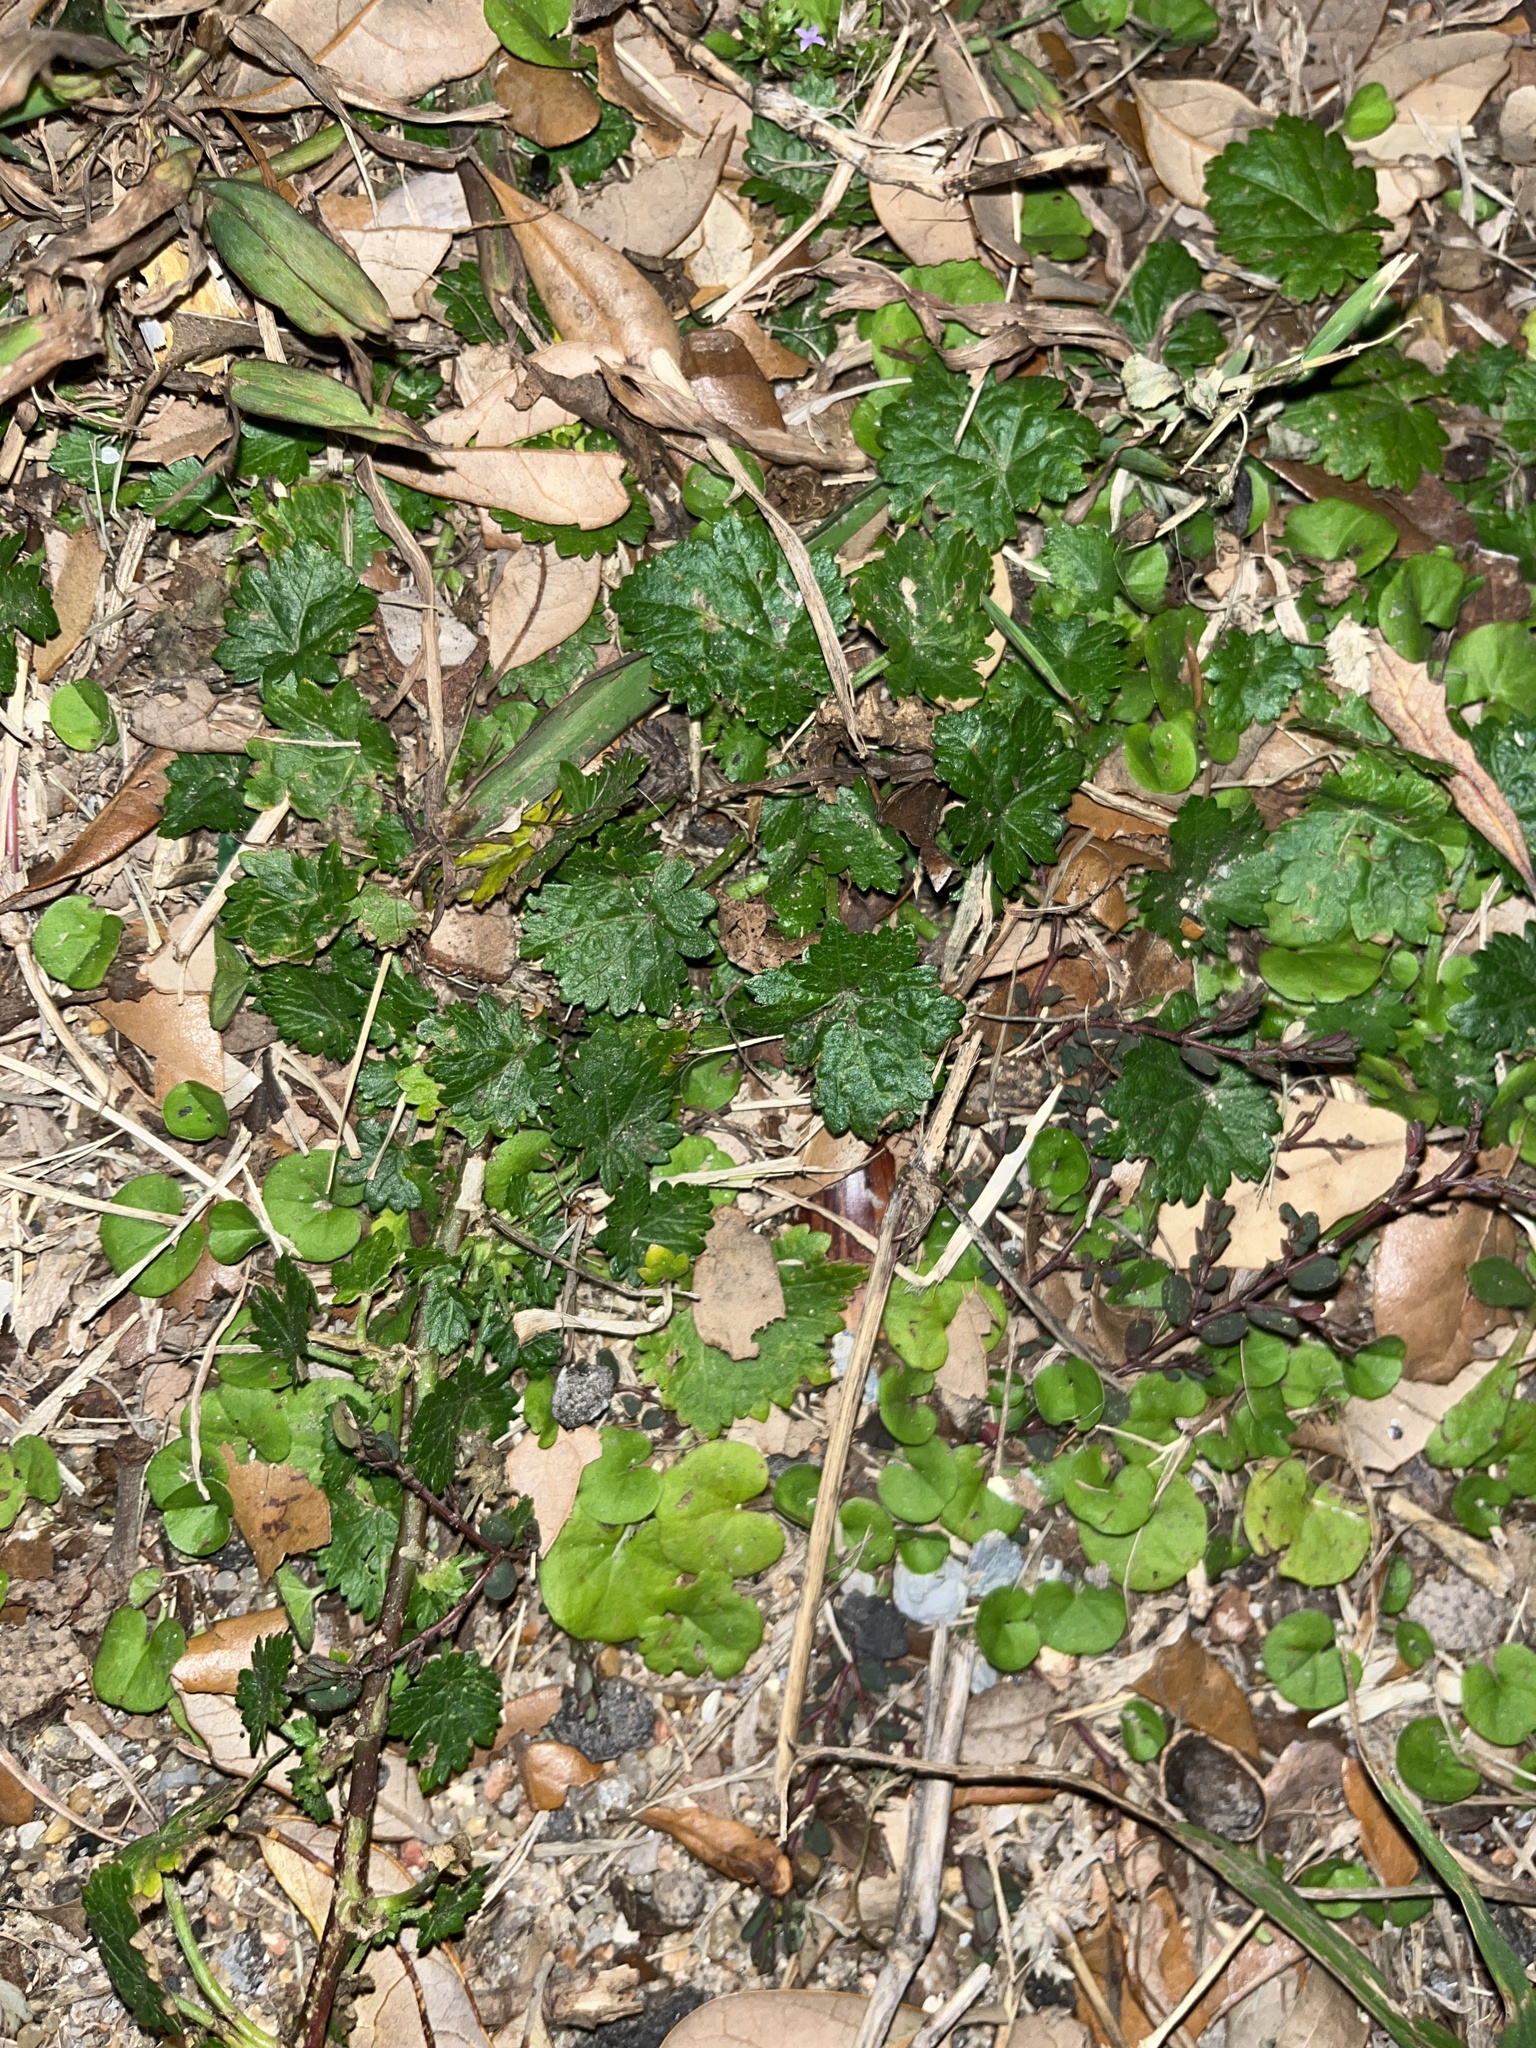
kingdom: Plantae
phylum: Tracheophyta
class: Magnoliopsida
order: Malvales
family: Malvaceae
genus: Modiola
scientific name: Modiola caroliniana
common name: Carolina bristlemallow
